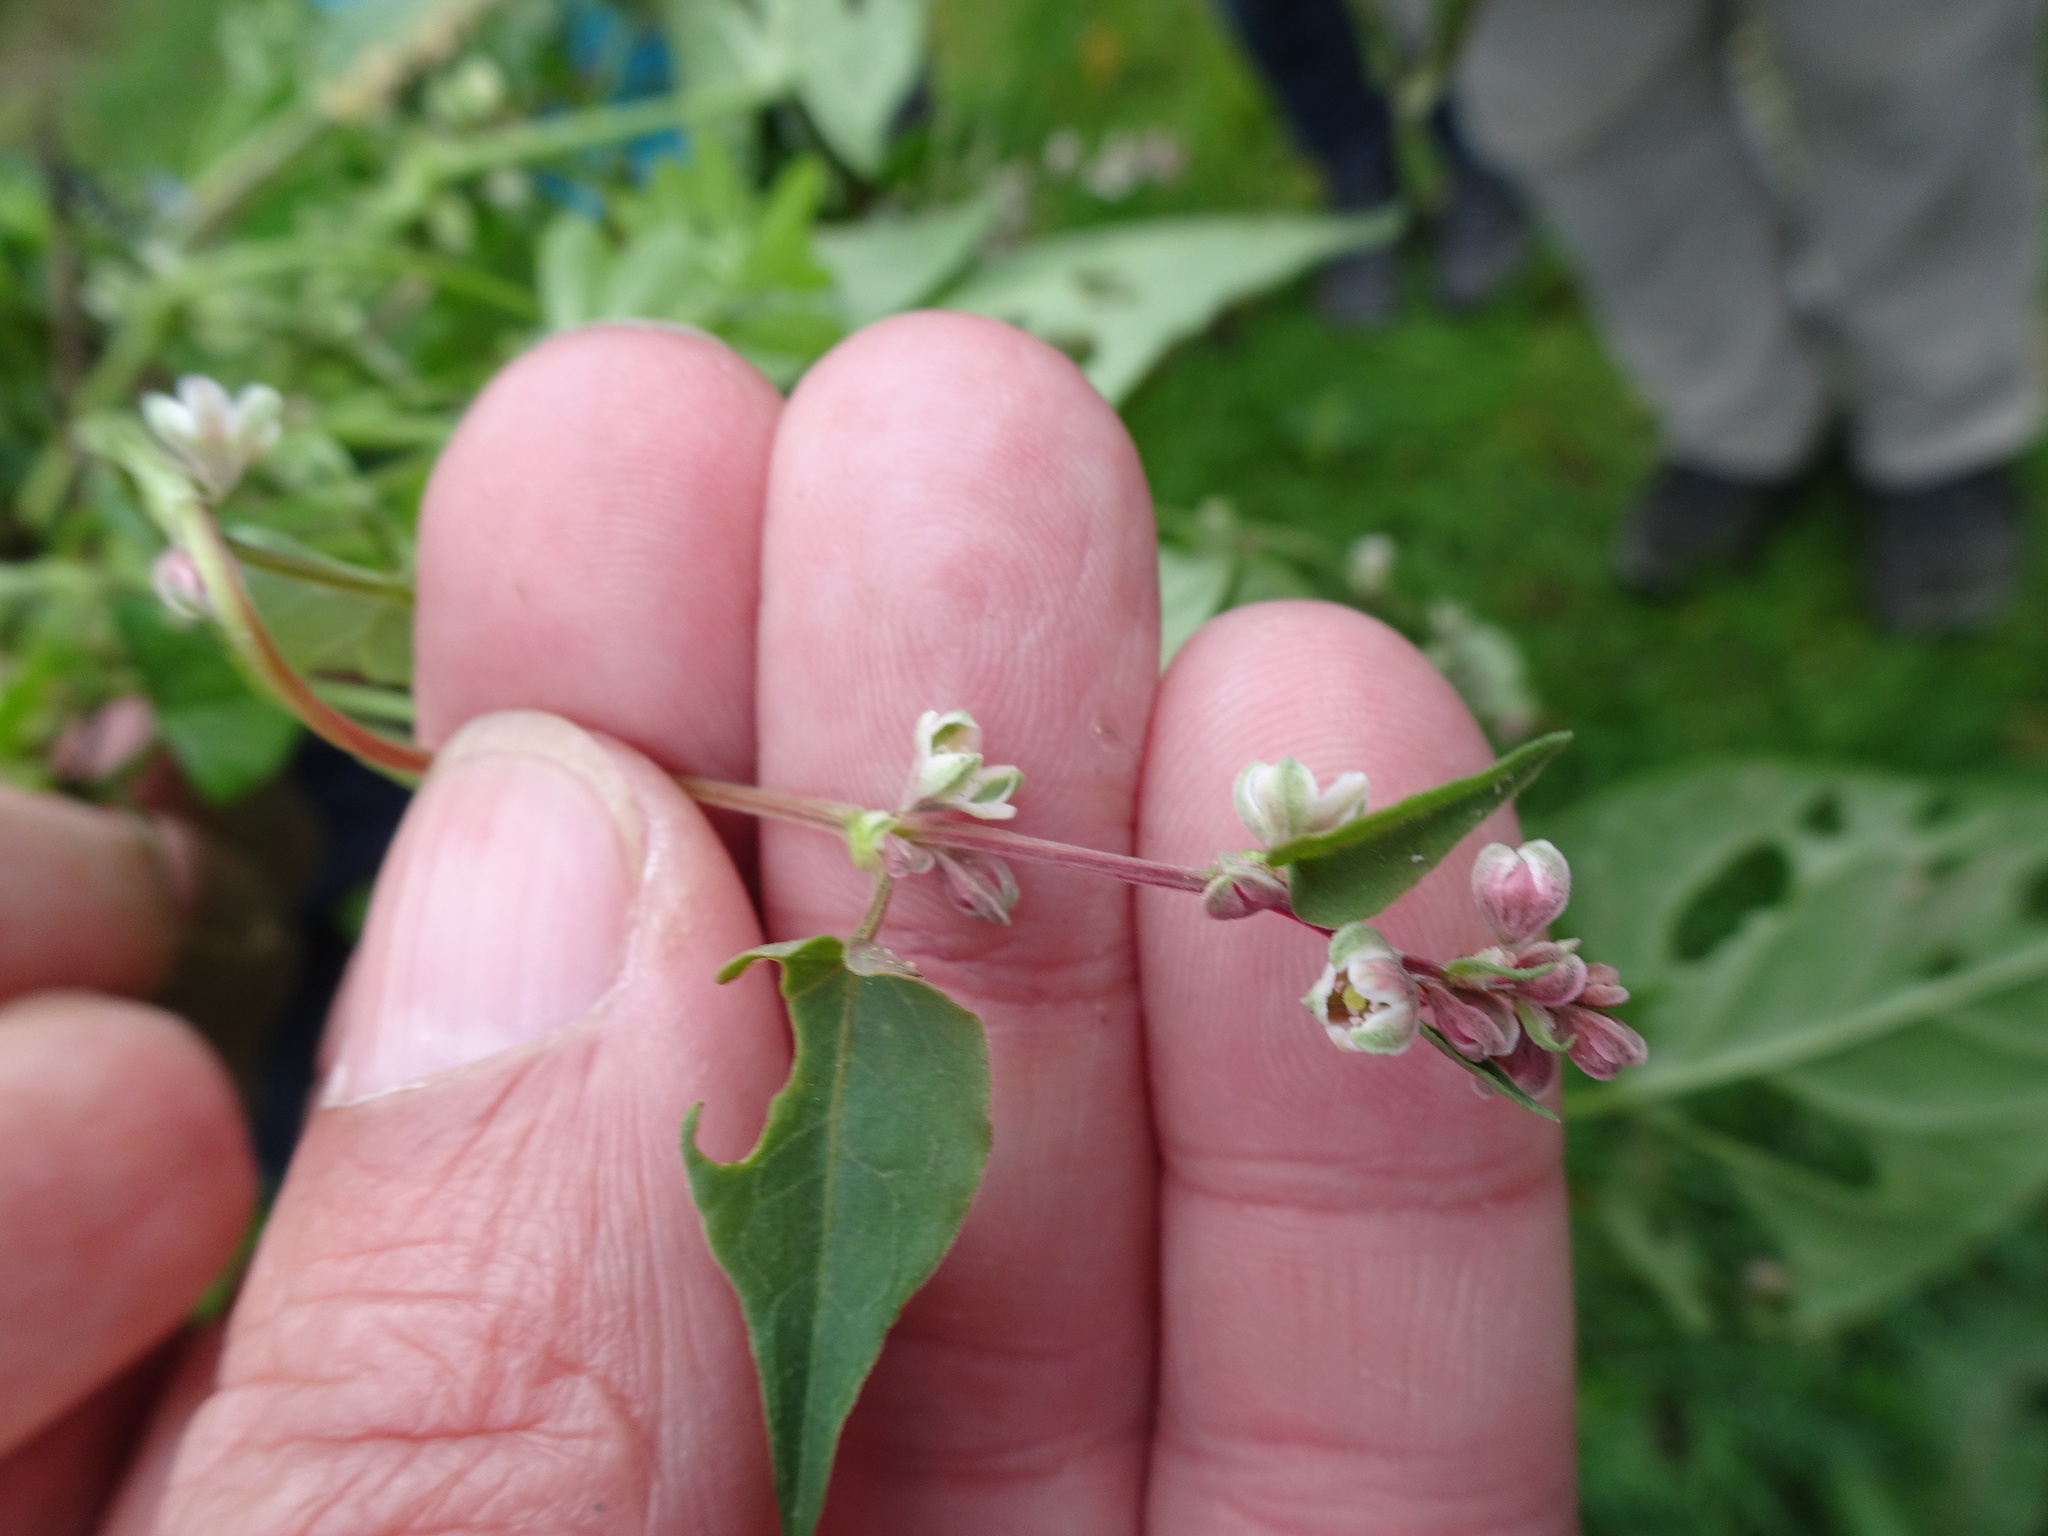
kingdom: Plantae
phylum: Tracheophyta
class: Magnoliopsida
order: Caryophyllales
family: Polygonaceae
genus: Fallopia
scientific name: Fallopia convolvulus
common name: Black bindweed
